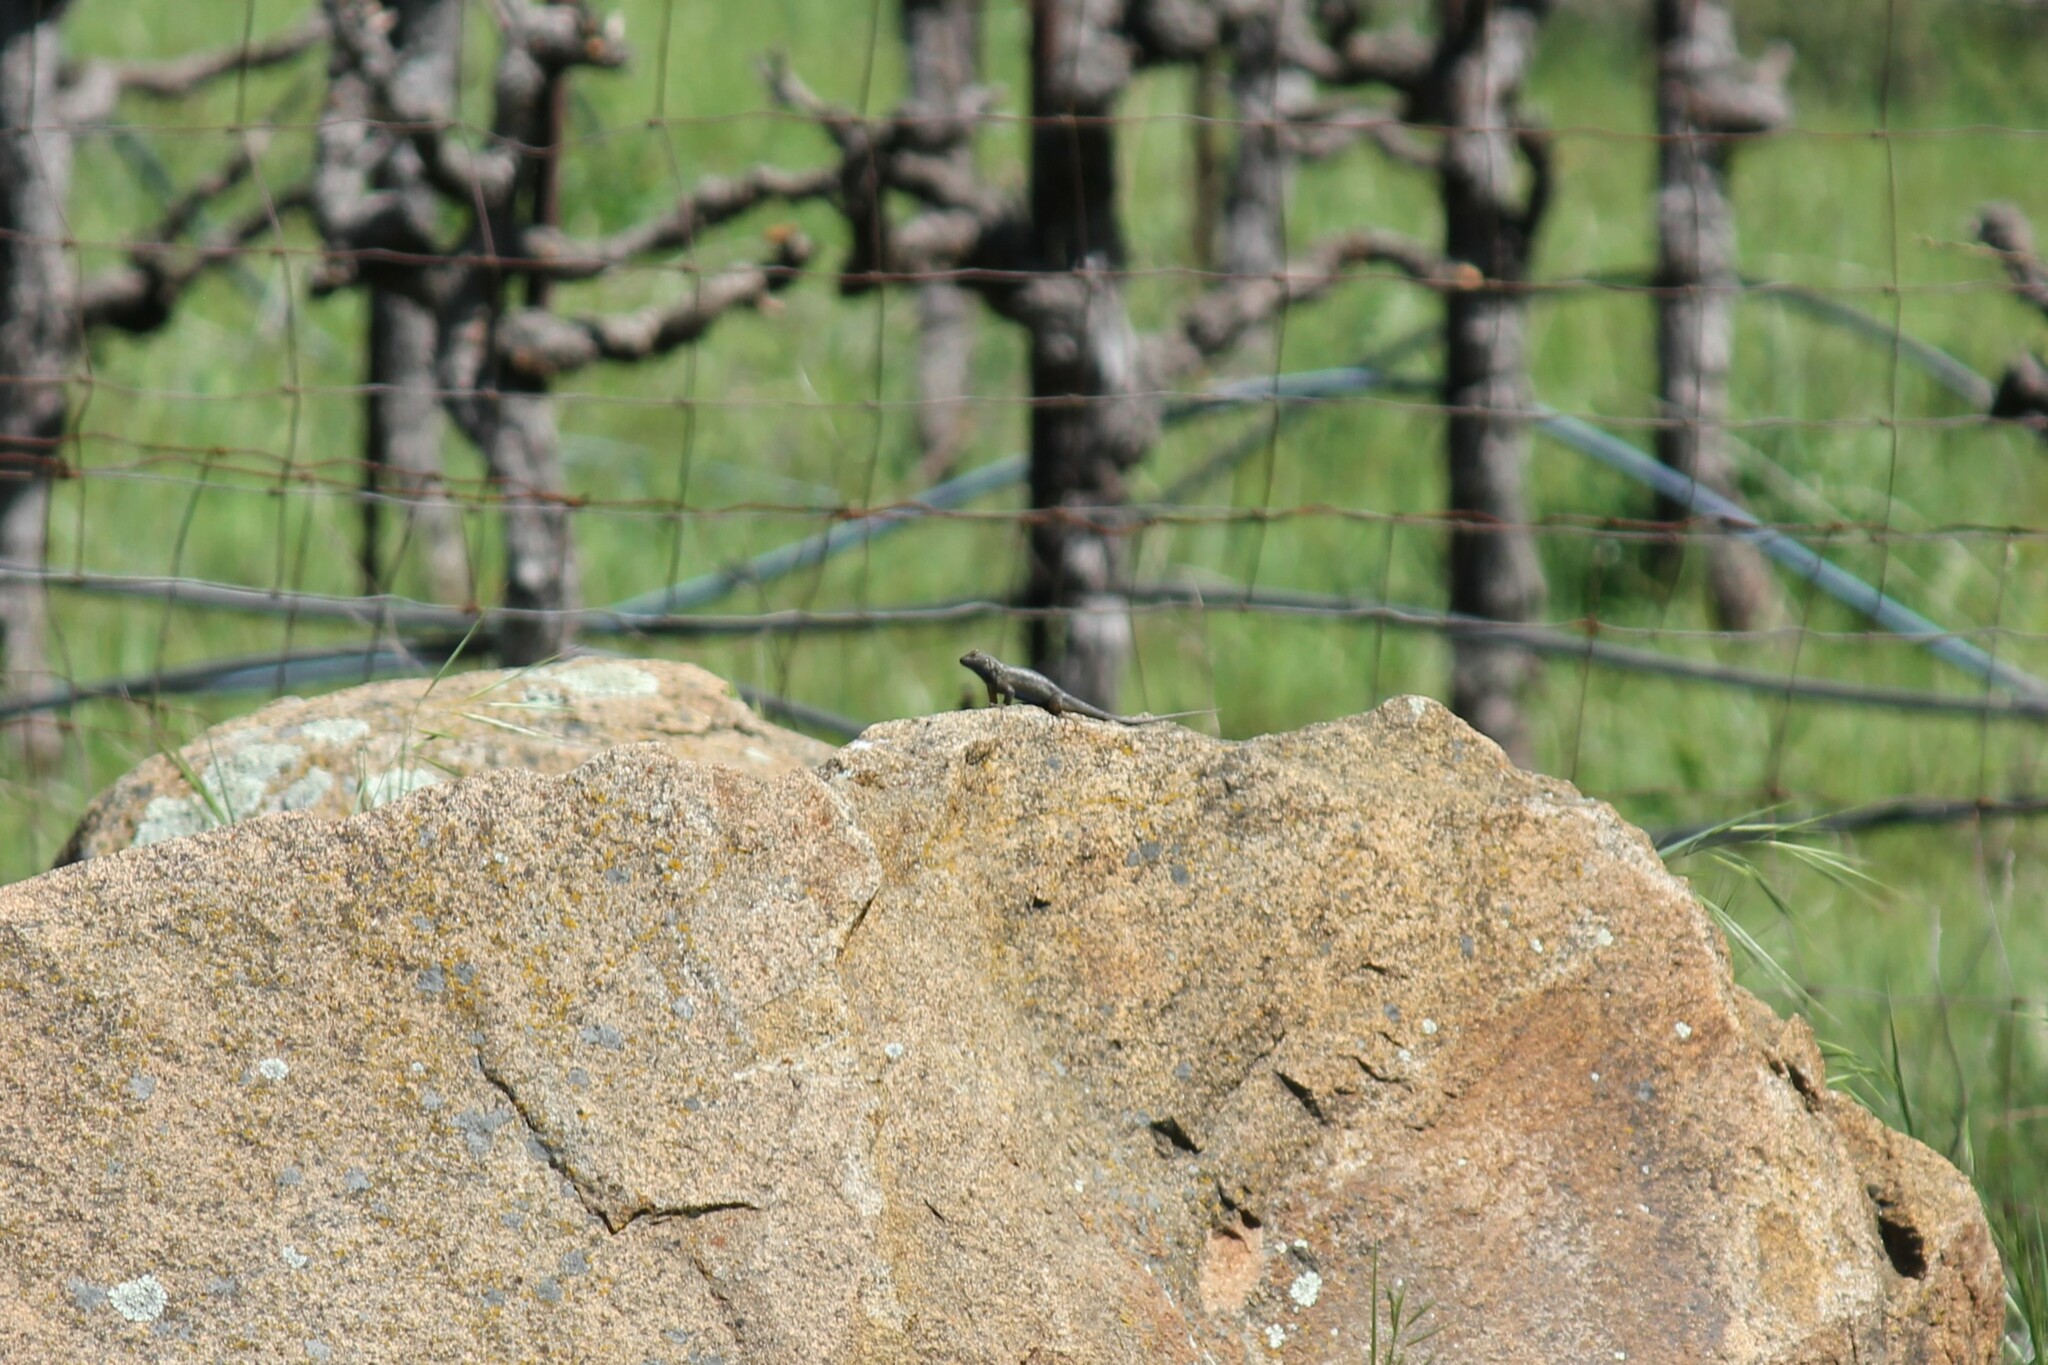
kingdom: Animalia
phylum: Chordata
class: Squamata
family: Phrynosomatidae
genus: Sceloporus
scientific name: Sceloporus occidentalis
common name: Western fence lizard
